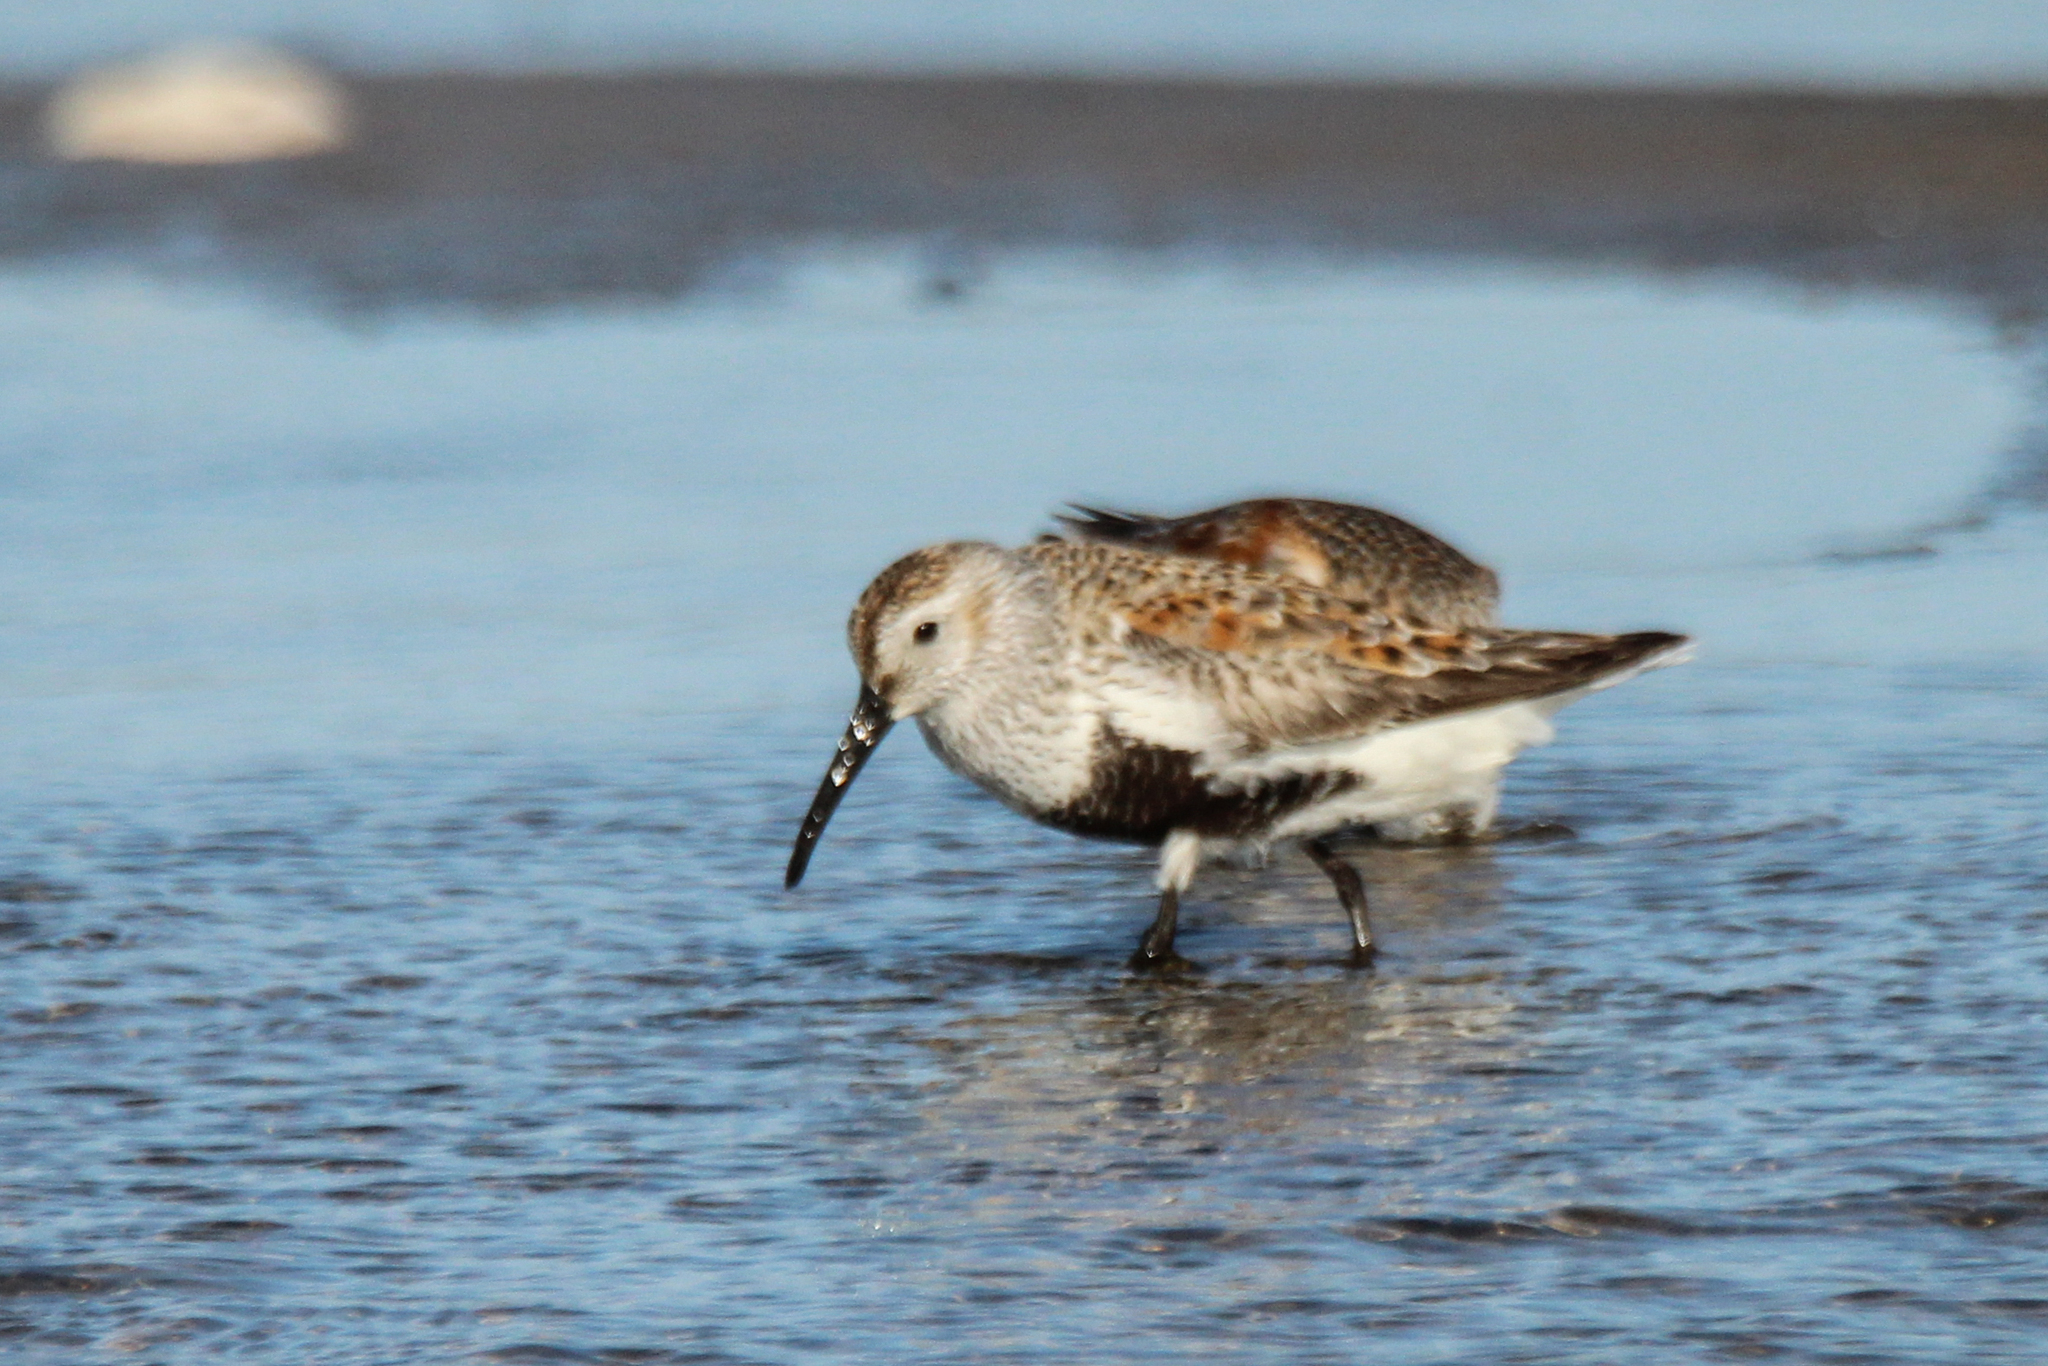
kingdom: Animalia
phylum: Chordata
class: Aves
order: Charadriiformes
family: Scolopacidae
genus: Calidris
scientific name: Calidris alpina
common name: Dunlin
